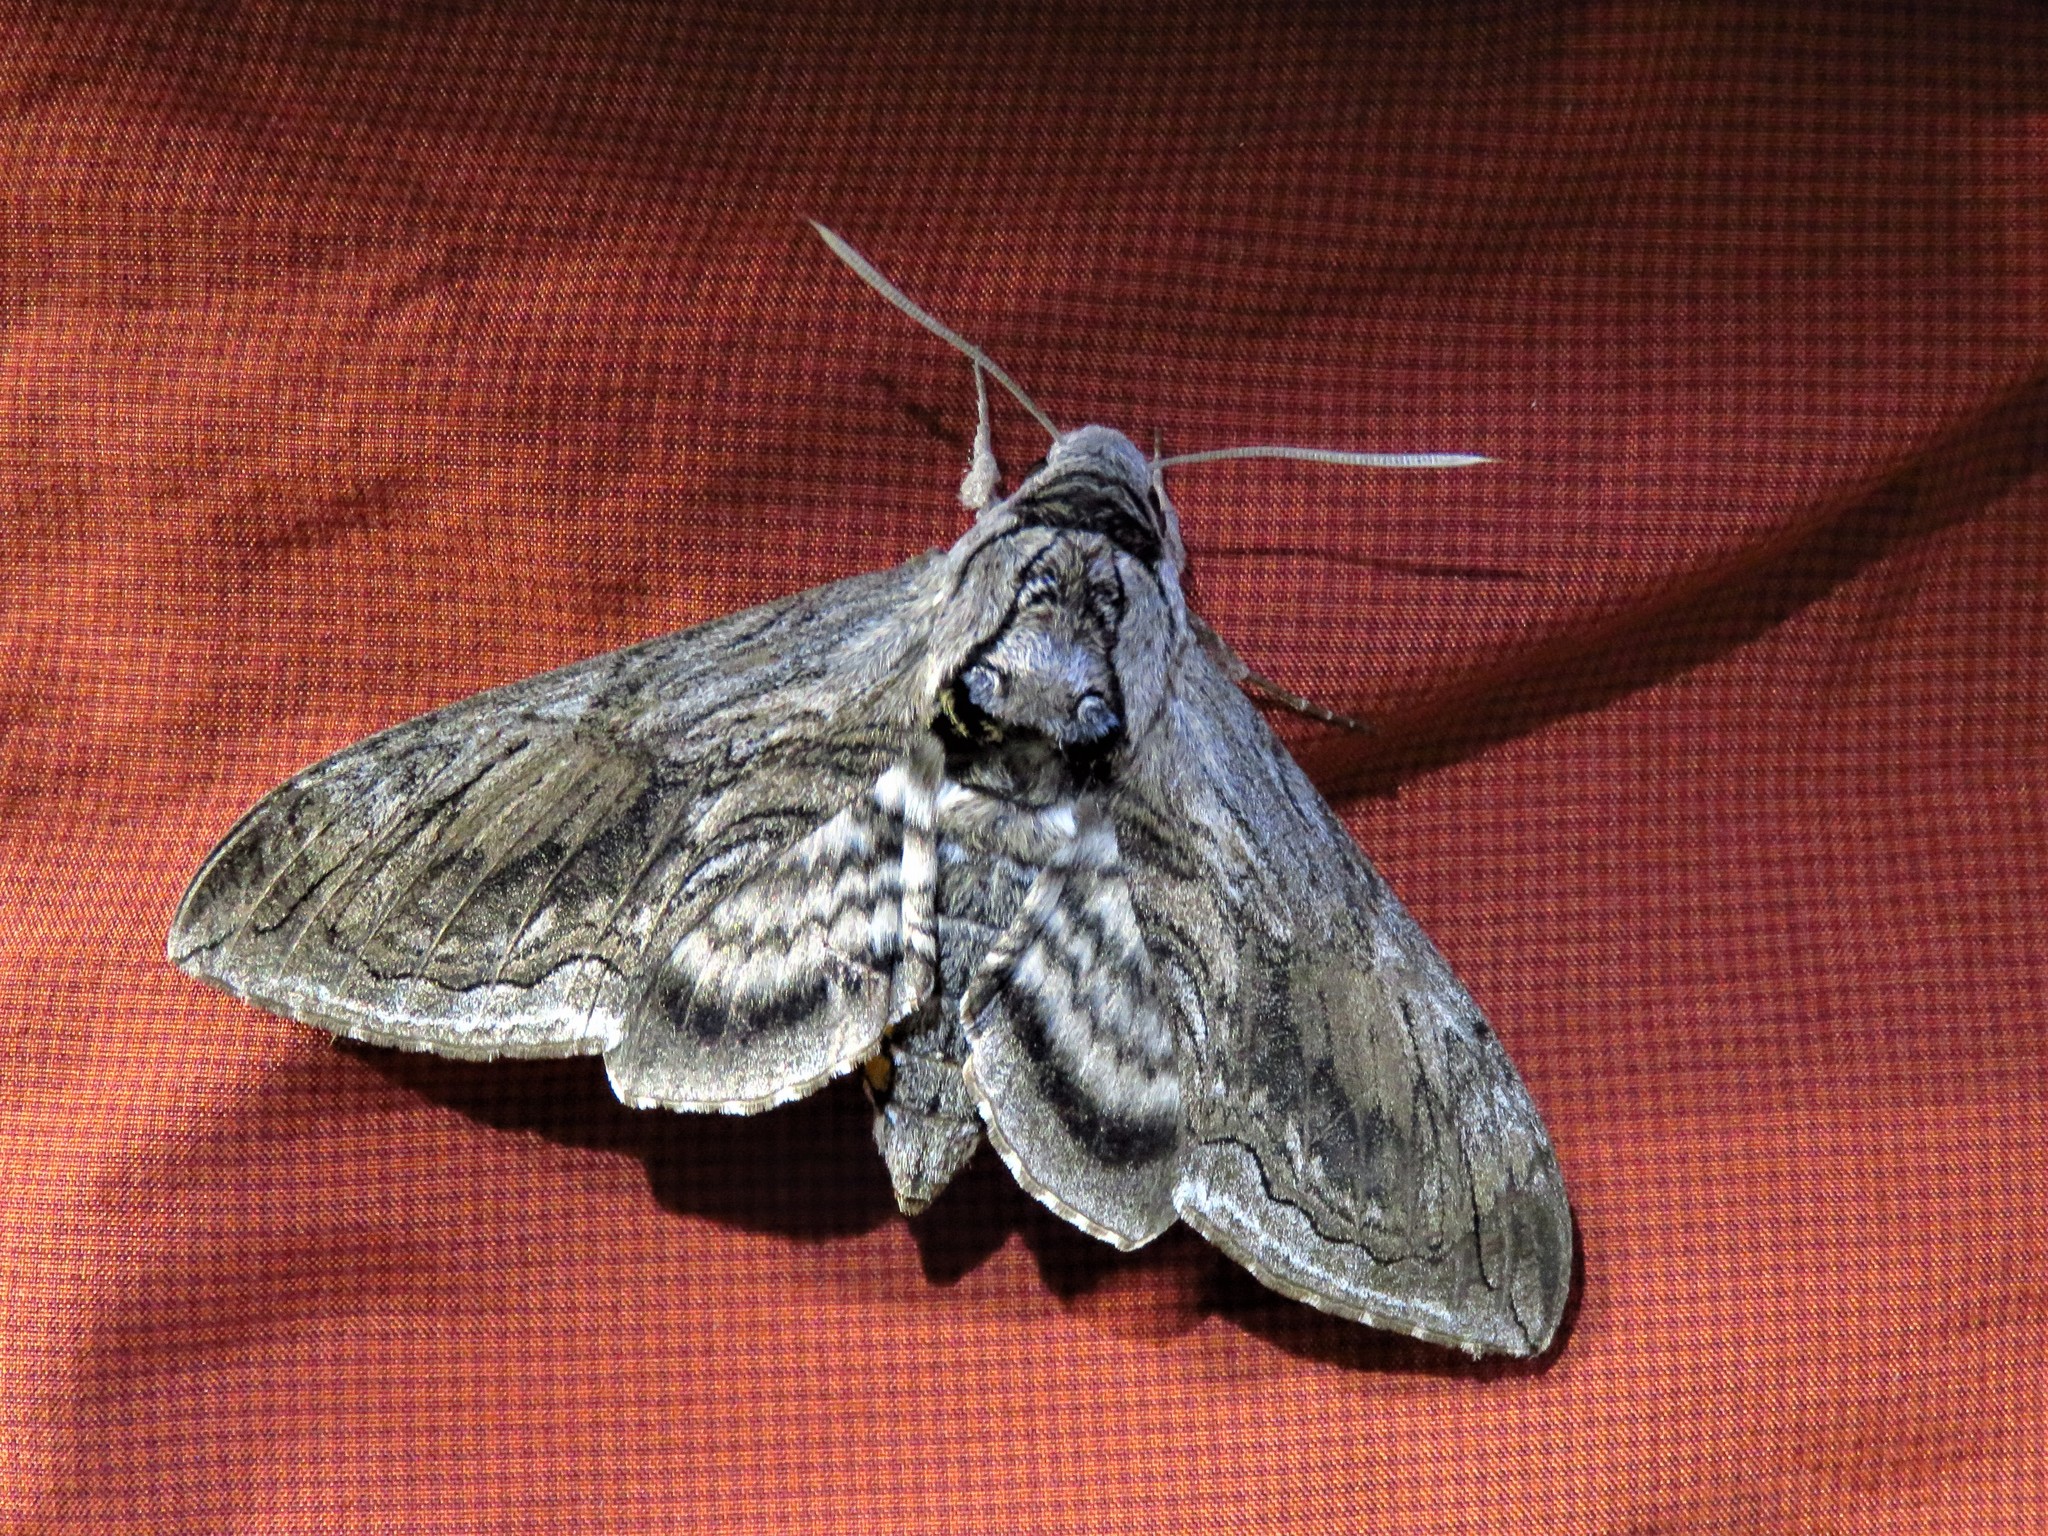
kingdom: Animalia
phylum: Arthropoda
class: Insecta
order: Lepidoptera
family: Sphingidae
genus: Manduca
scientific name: Manduca quinquemaculatus
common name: Five-spotted hawk-moth
